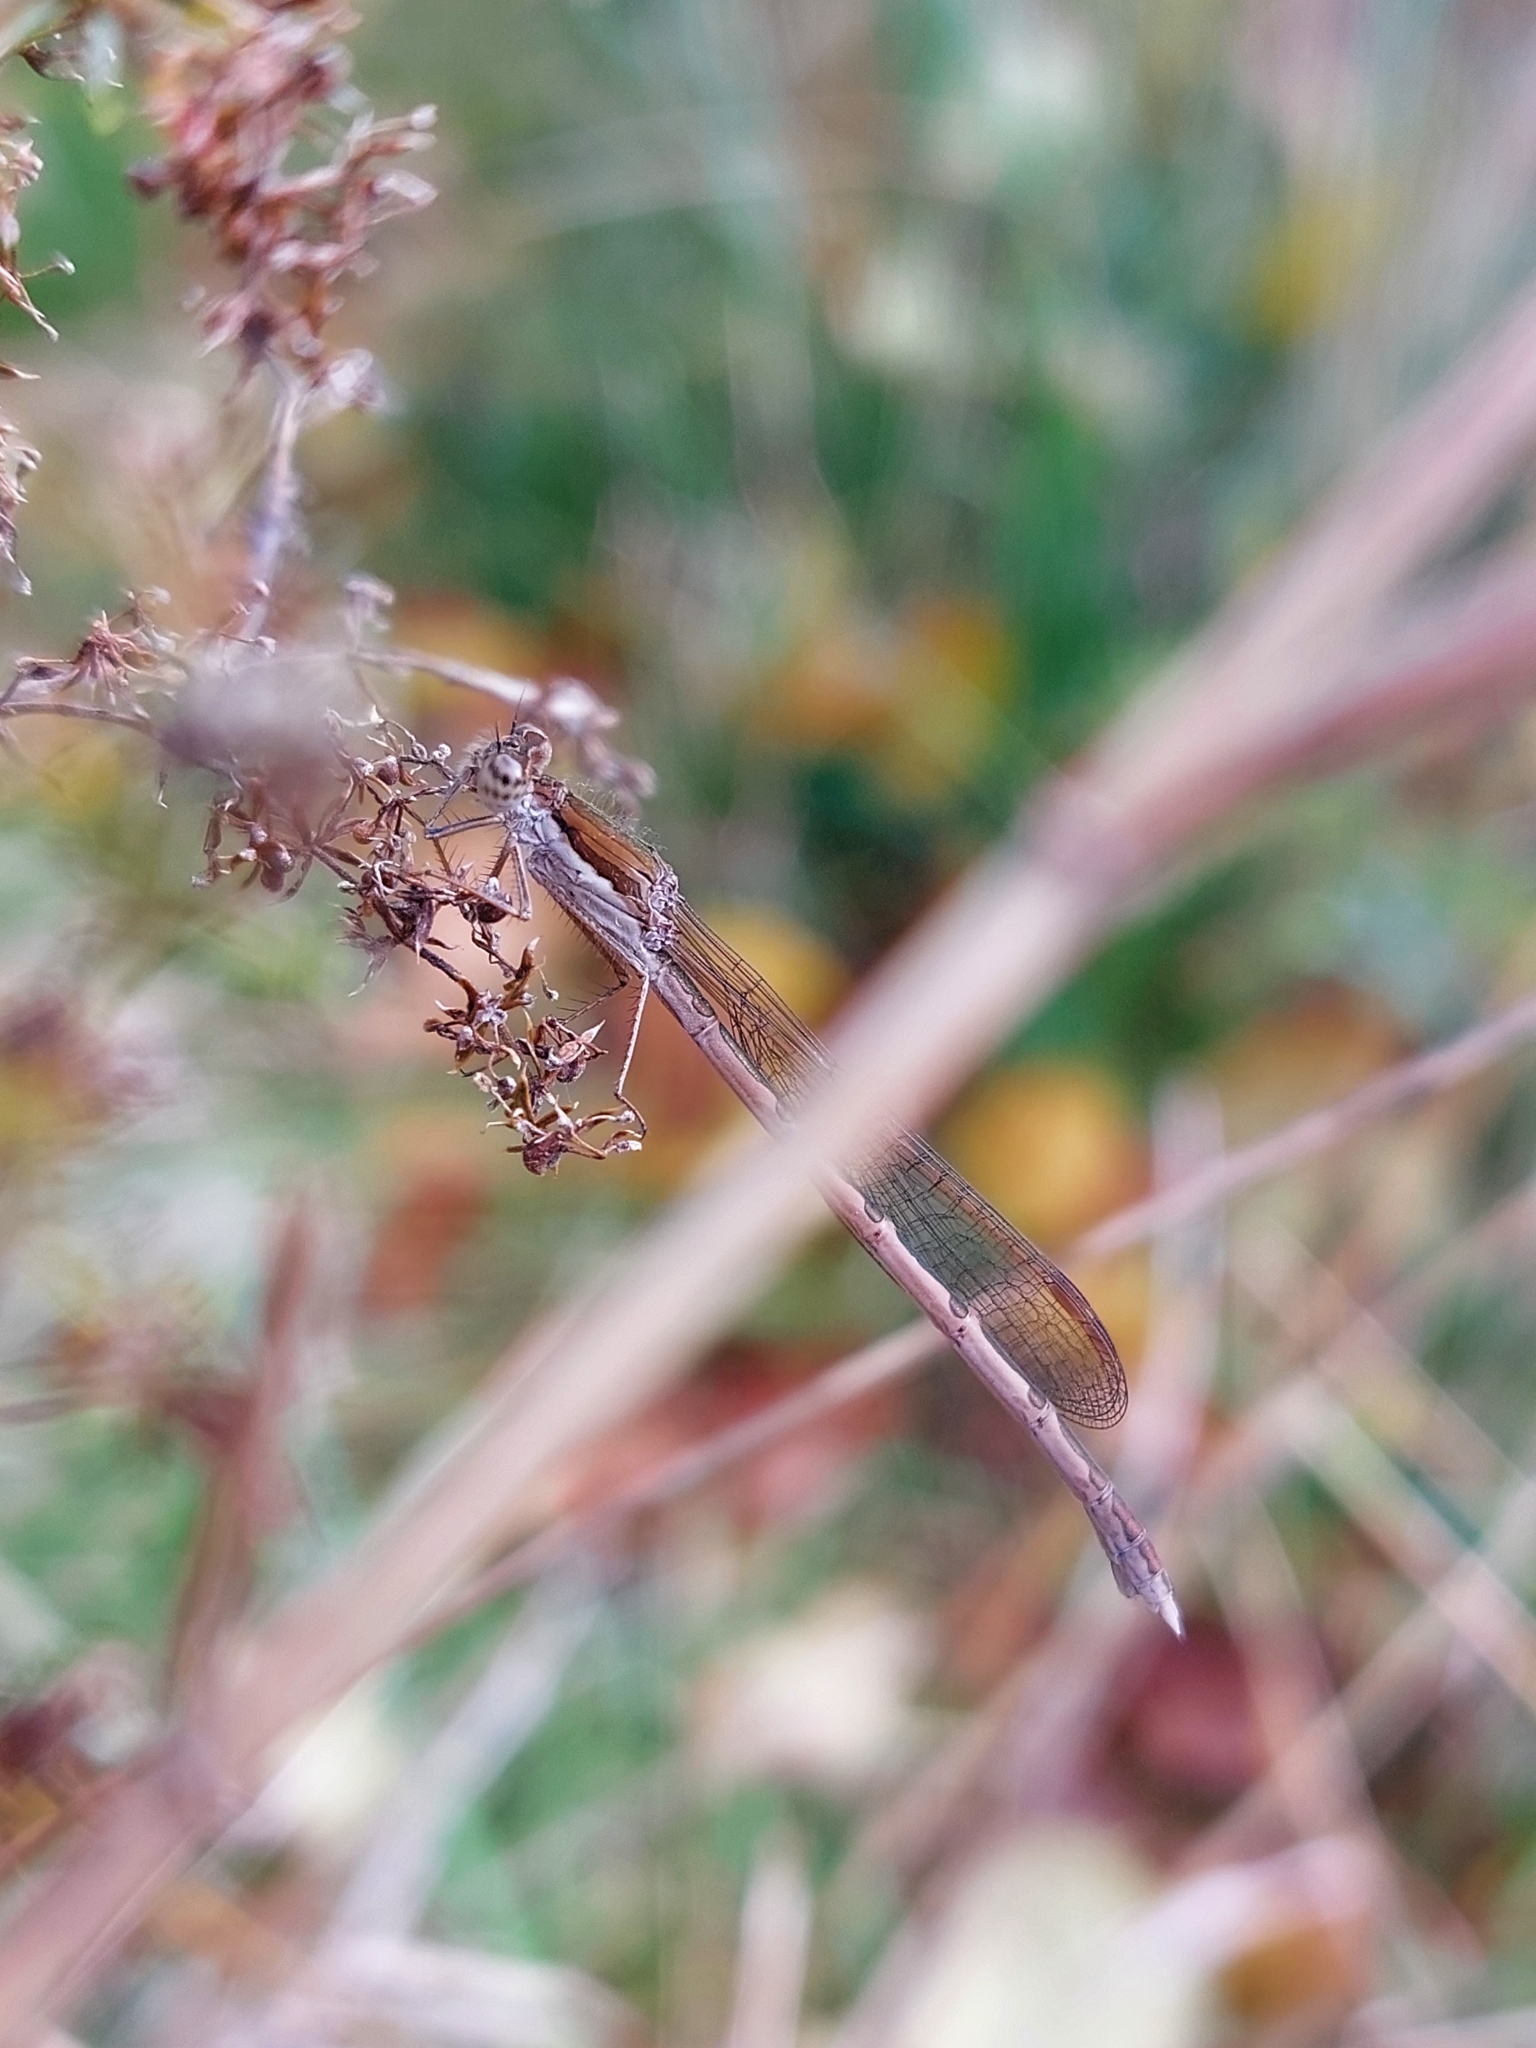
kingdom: Animalia
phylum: Arthropoda
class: Insecta
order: Odonata
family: Lestidae
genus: Sympecma
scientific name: Sympecma fusca
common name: Common winter damsel
